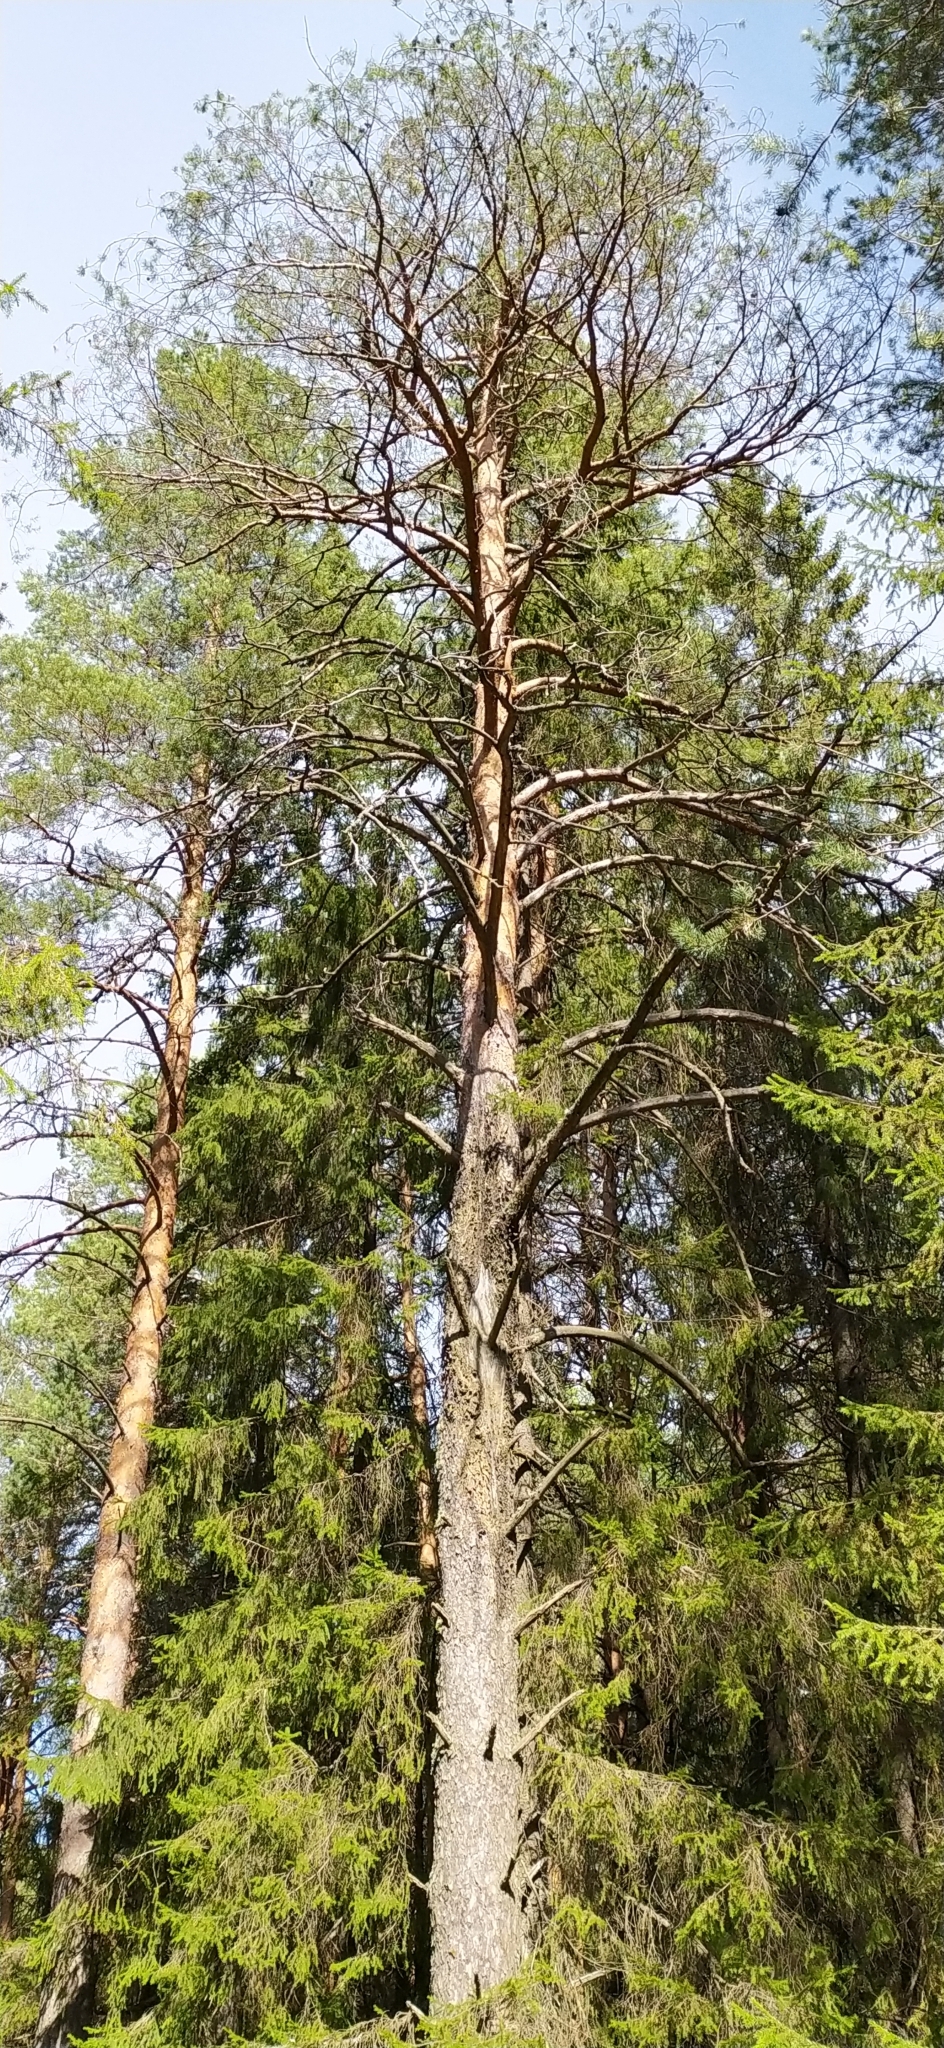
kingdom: Plantae
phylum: Tracheophyta
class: Pinopsida
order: Pinales
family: Pinaceae
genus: Pinus
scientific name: Pinus sylvestris
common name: Scots pine
